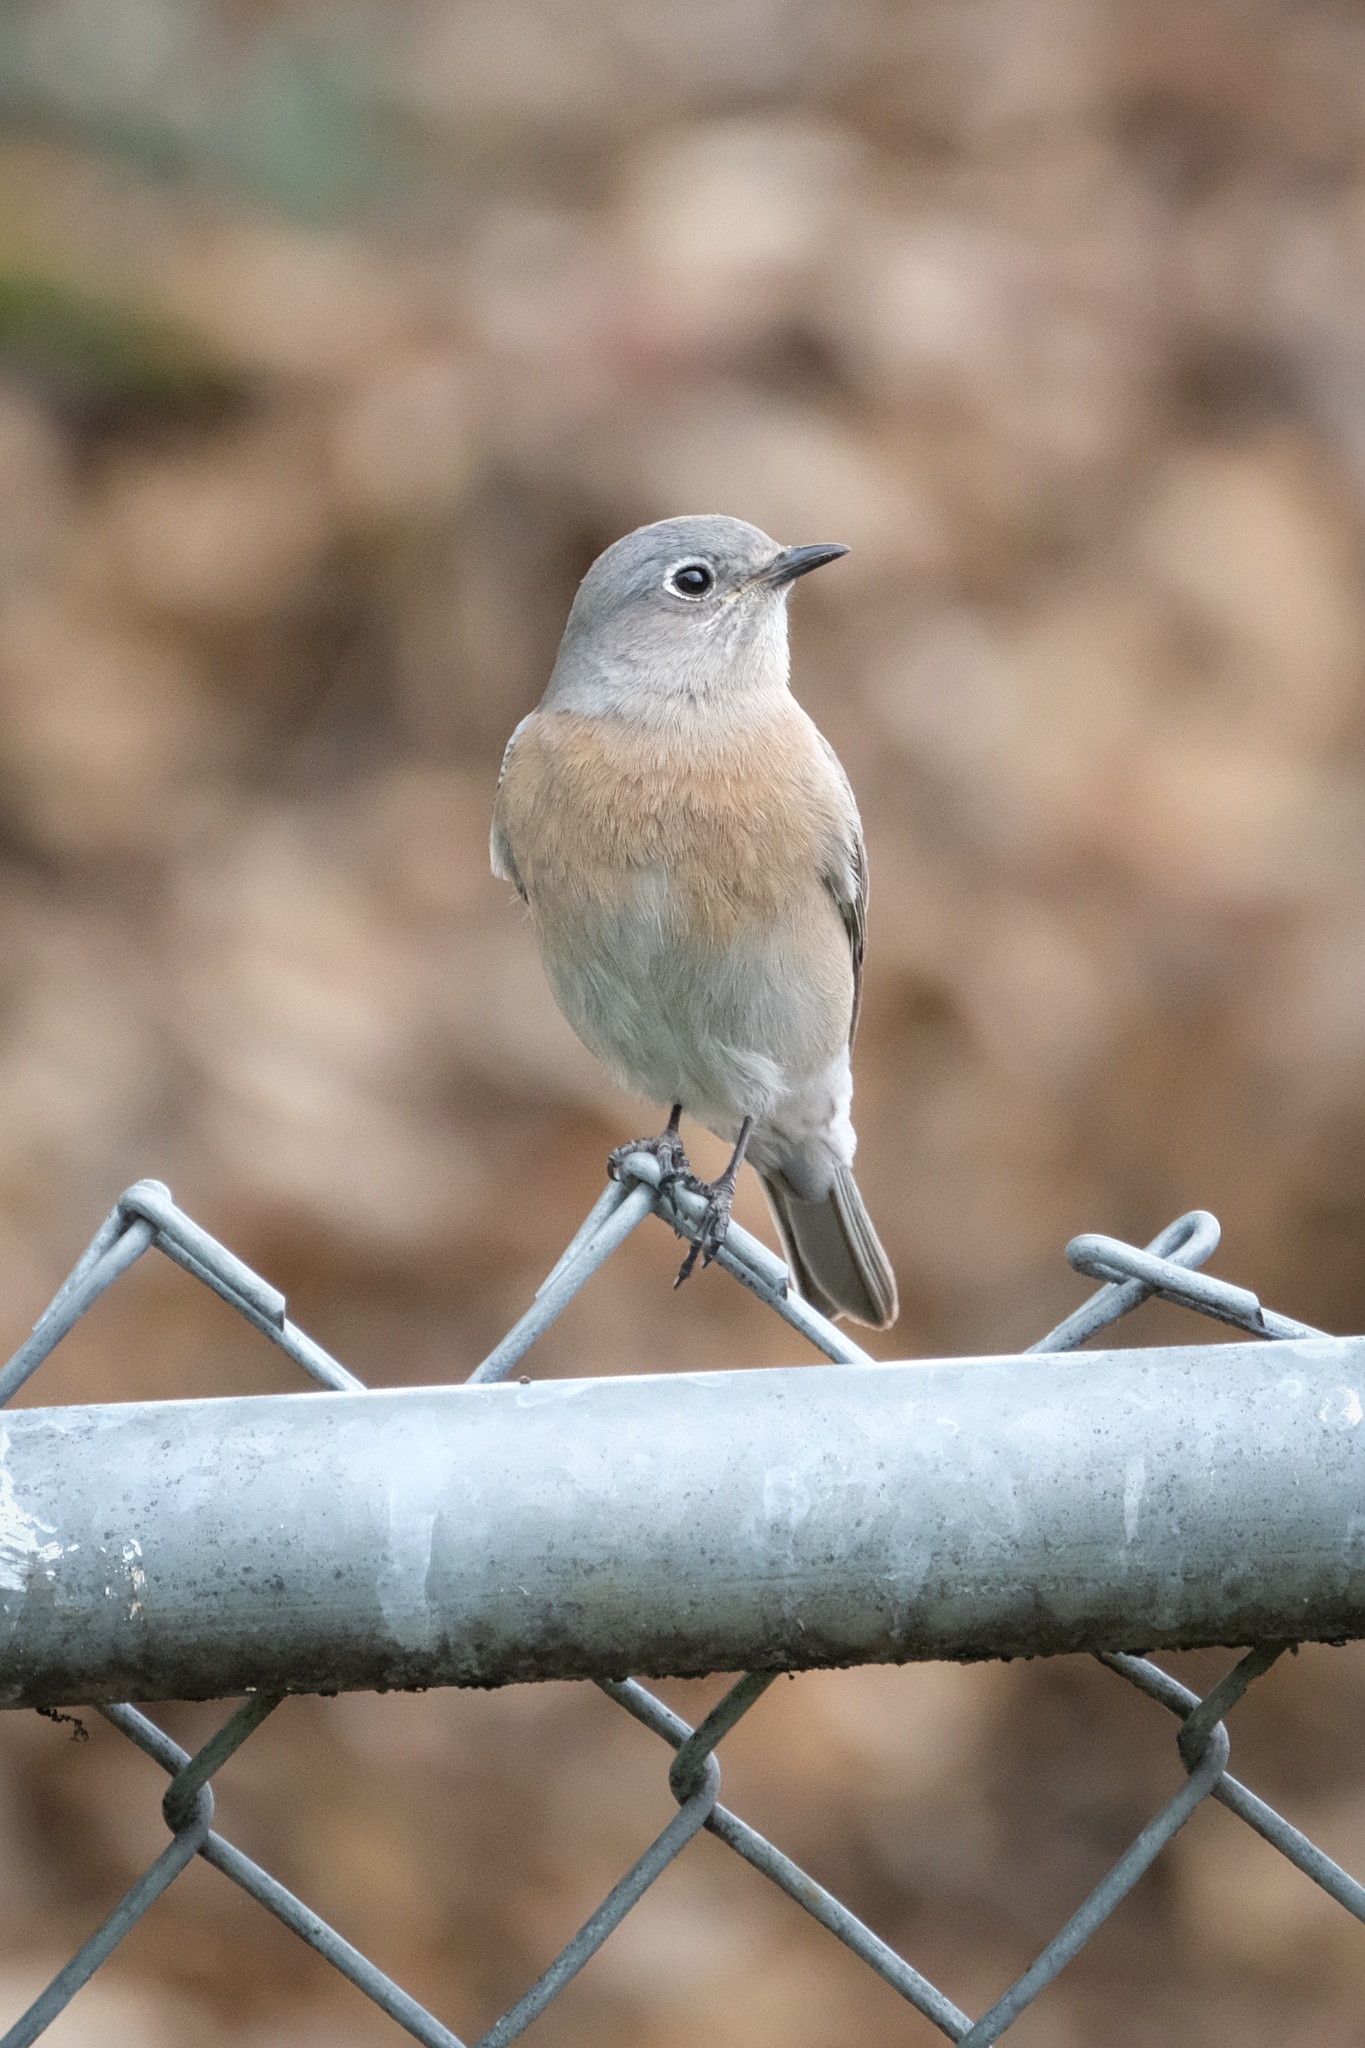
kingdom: Animalia
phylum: Chordata
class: Aves
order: Passeriformes
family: Turdidae
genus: Sialia
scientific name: Sialia mexicana
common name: Western bluebird
